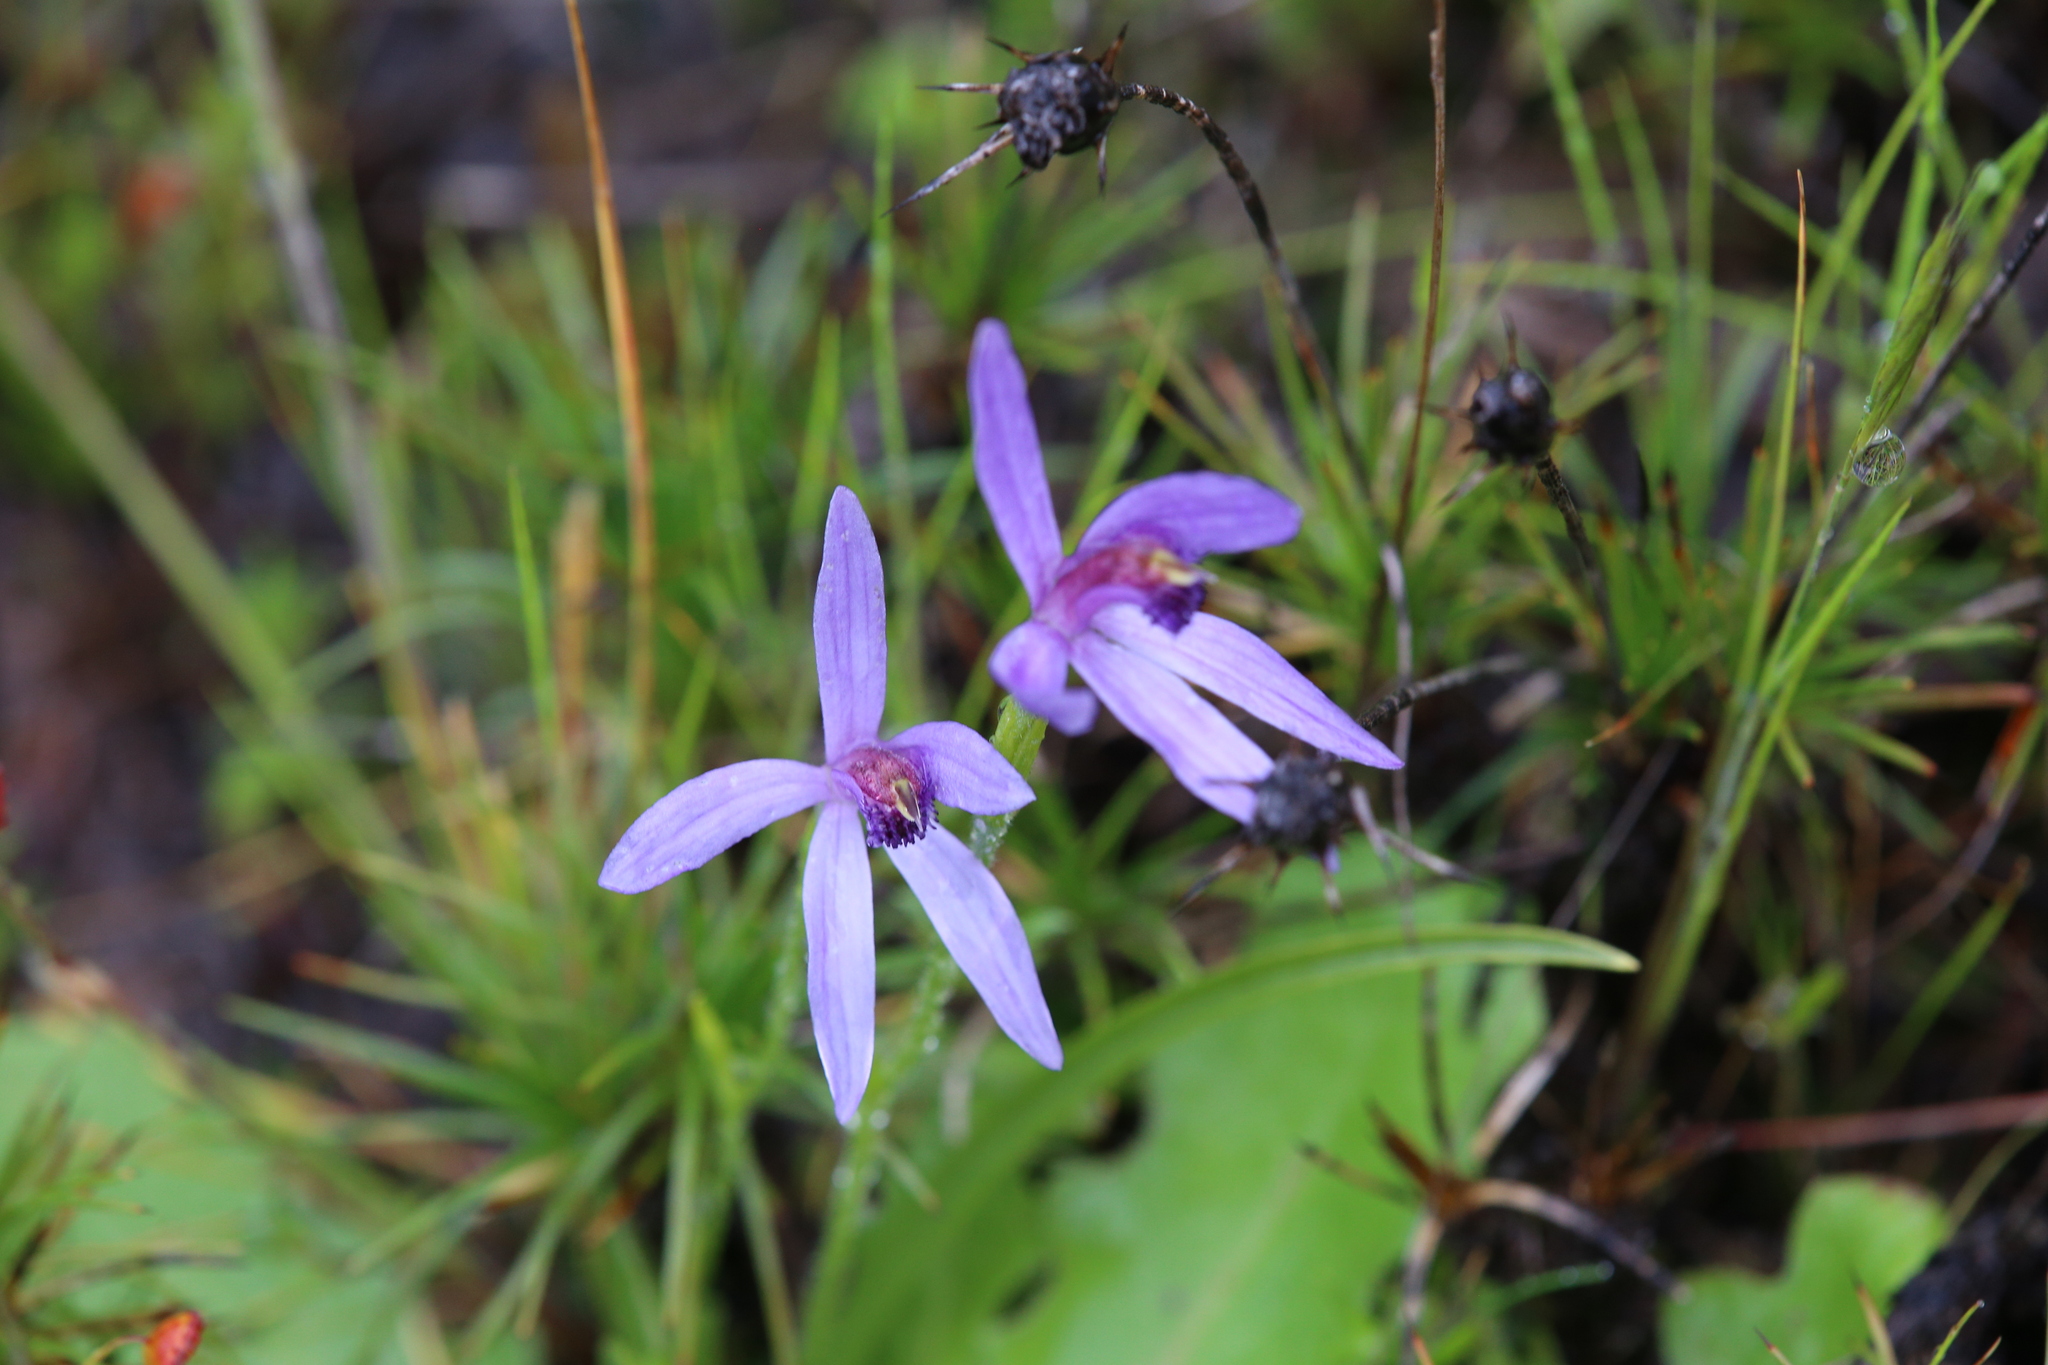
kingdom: Plantae
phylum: Tracheophyta
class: Liliopsida
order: Asparagales
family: Orchidaceae
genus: Pheladenia
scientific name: Pheladenia deformis
